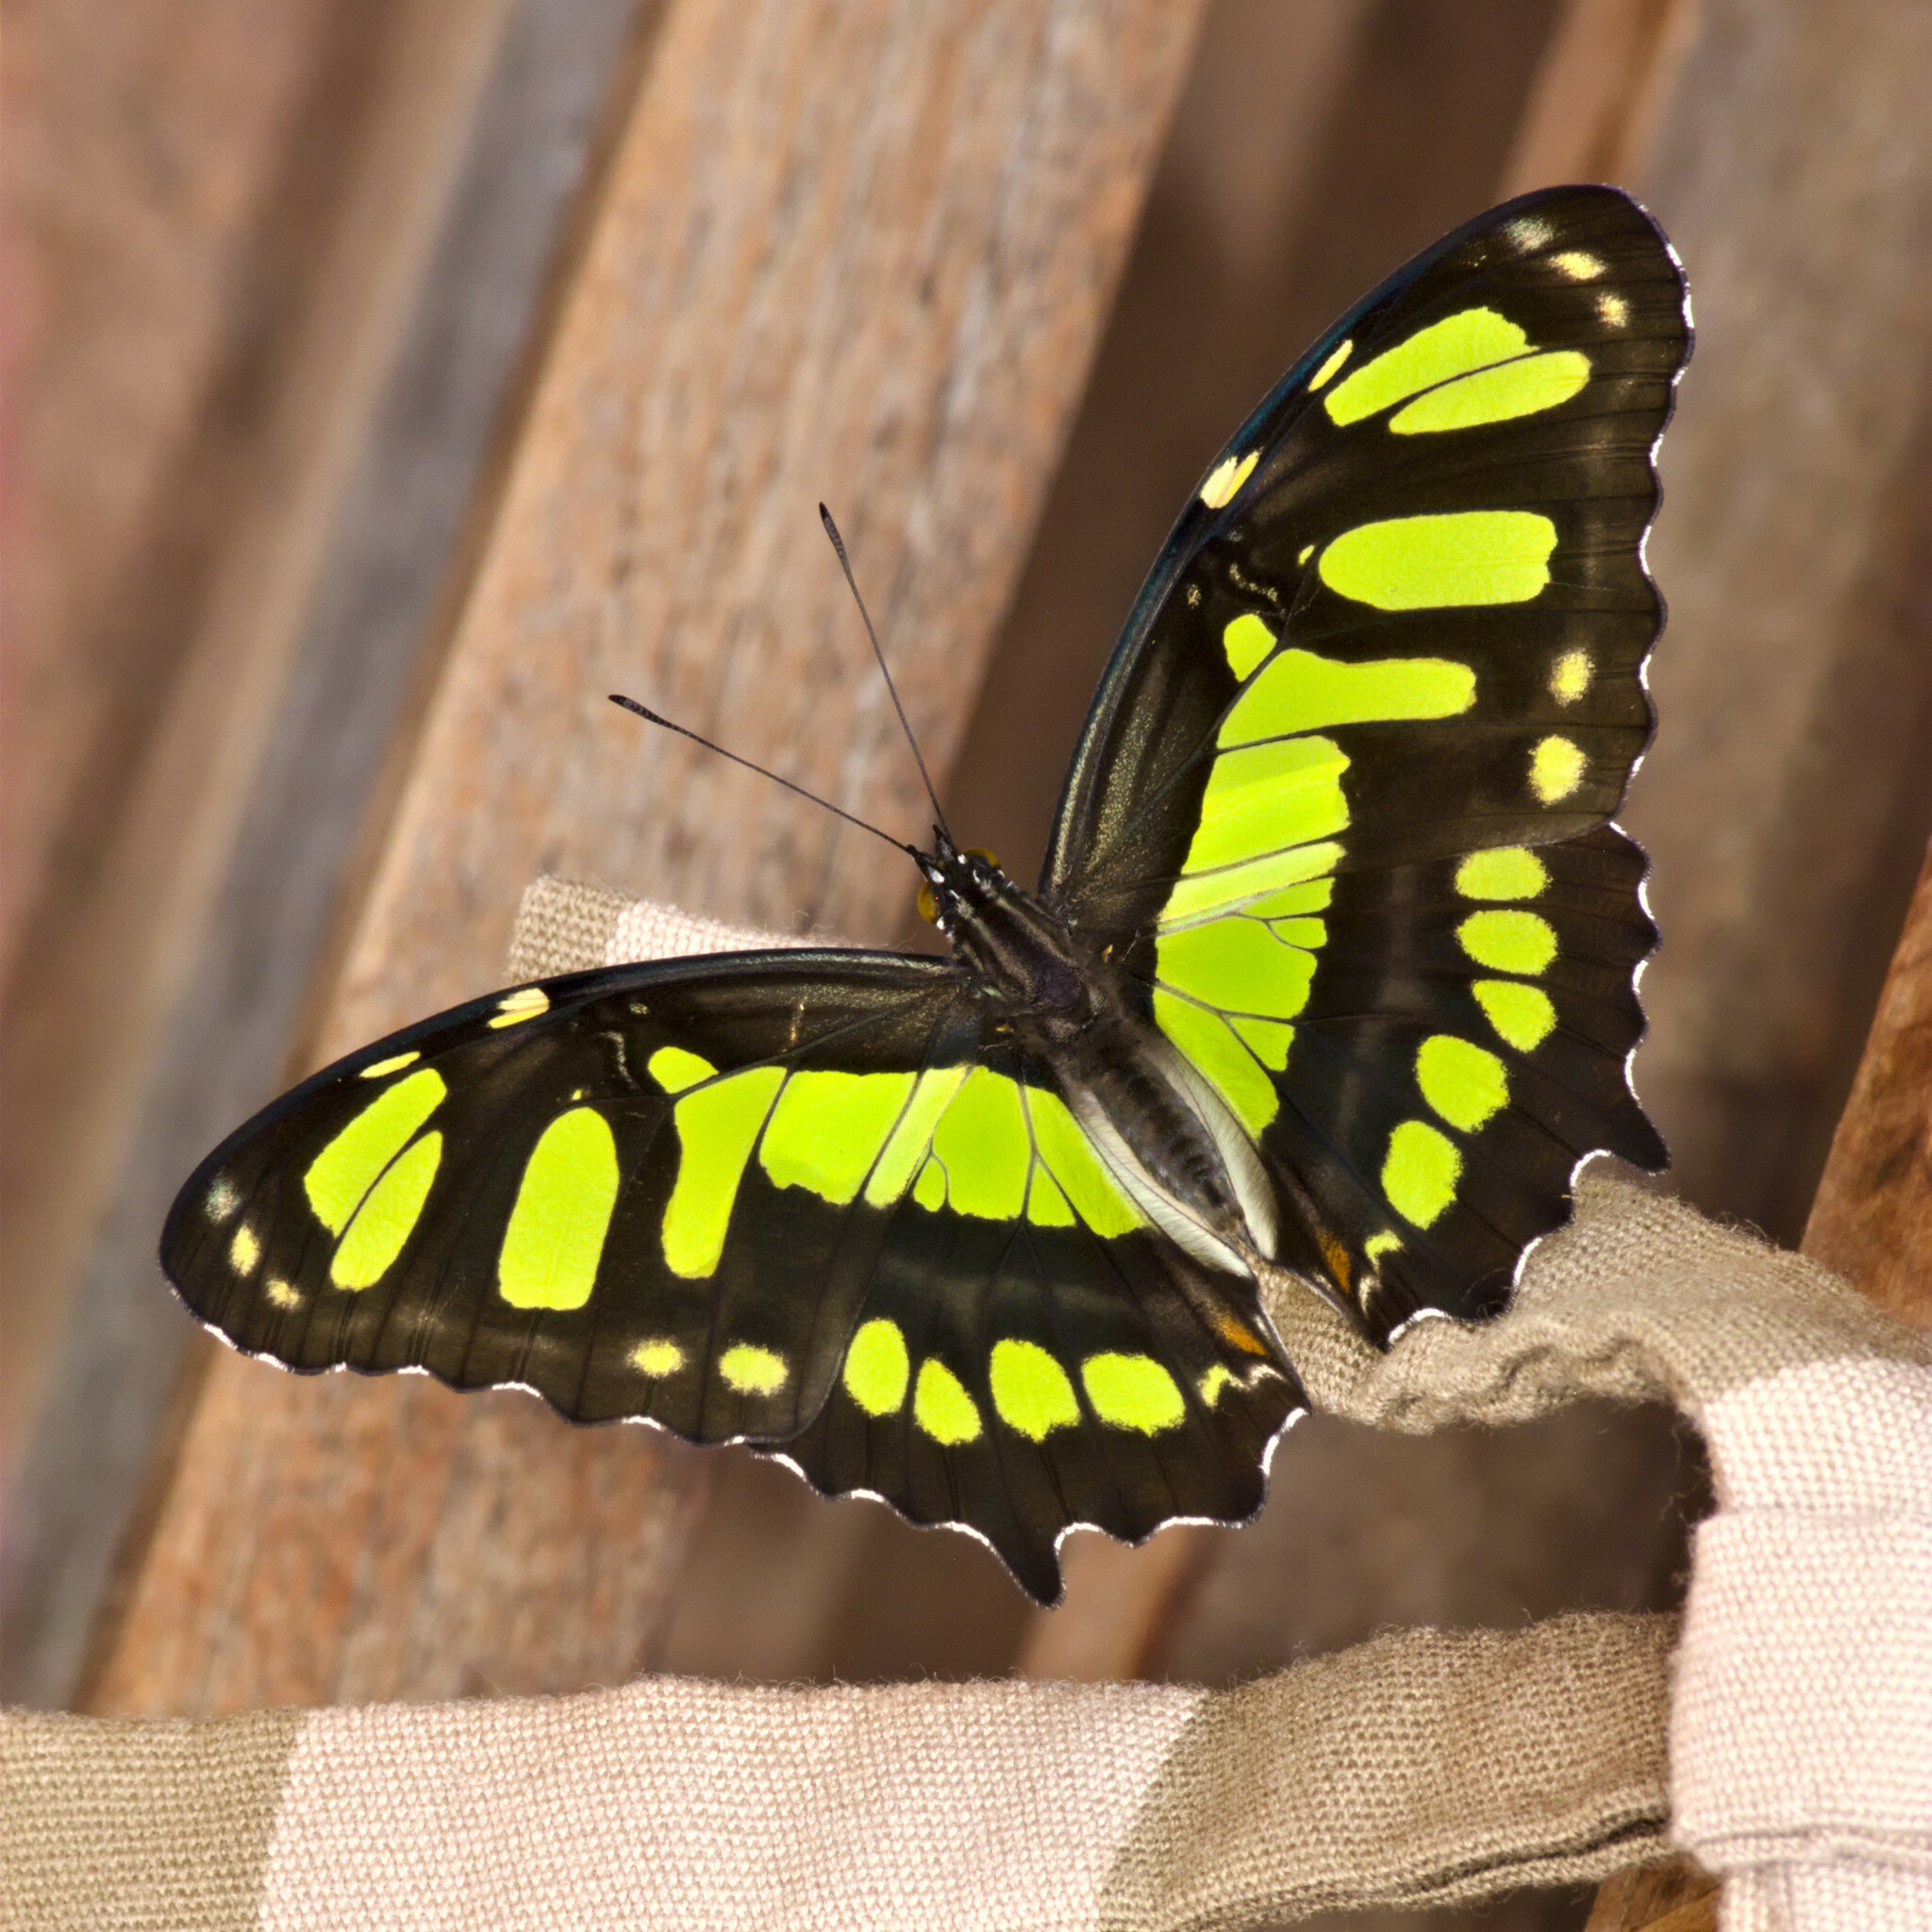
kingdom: Animalia
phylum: Arthropoda
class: Insecta
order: Lepidoptera
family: Nymphalidae
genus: Siproeta
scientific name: Siproeta stelenes
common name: Malachite
